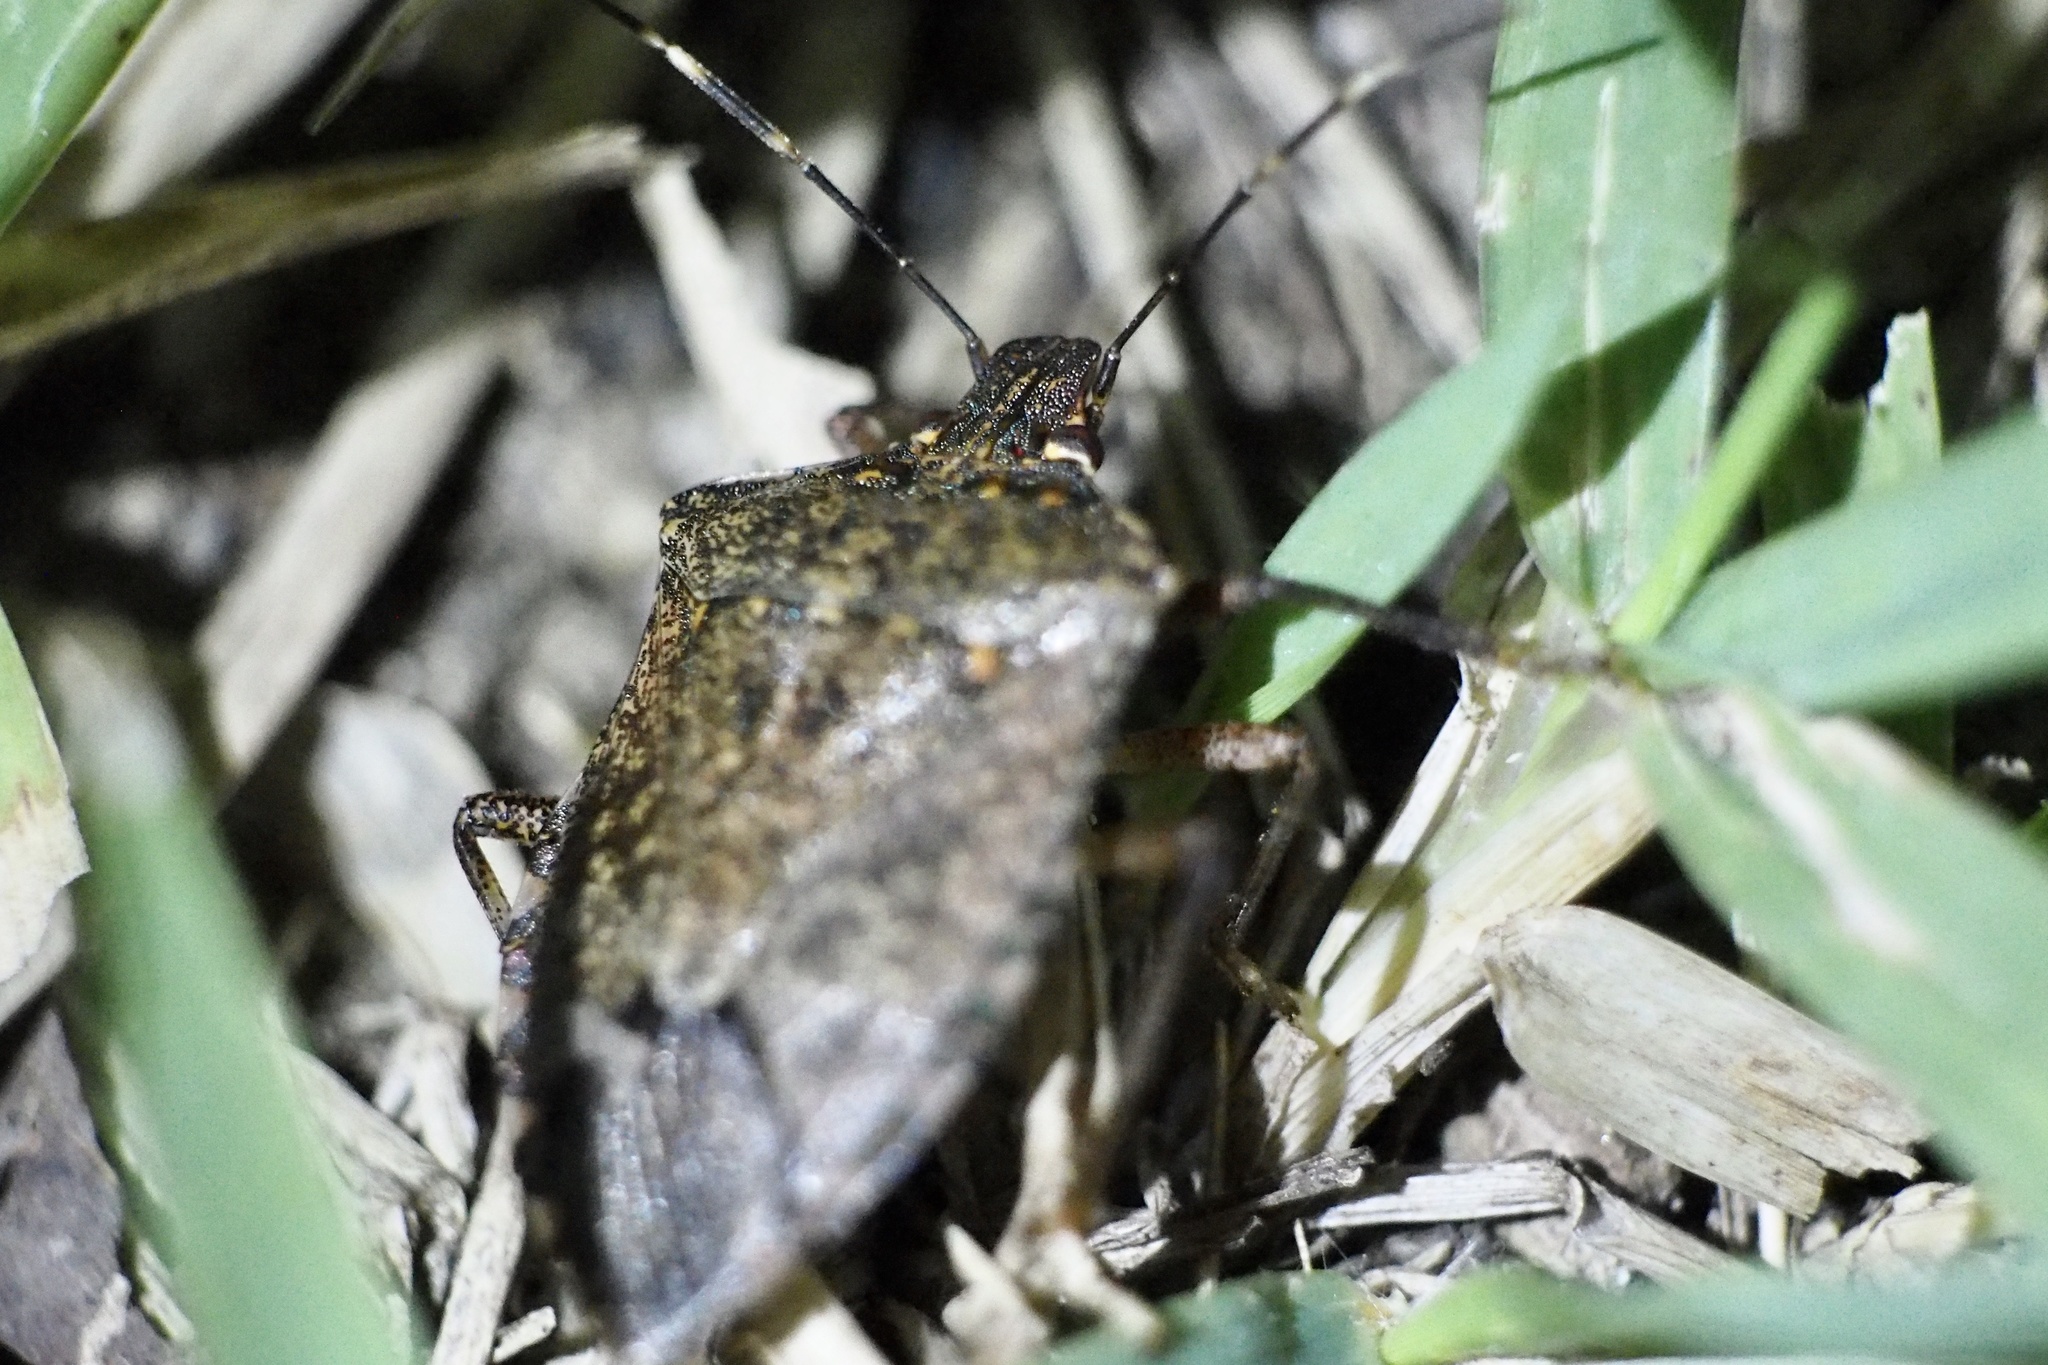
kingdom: Animalia
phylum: Arthropoda
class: Insecta
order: Hemiptera
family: Pentatomidae
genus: Halyomorpha
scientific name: Halyomorpha halys
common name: Brown marmorated stink bug
